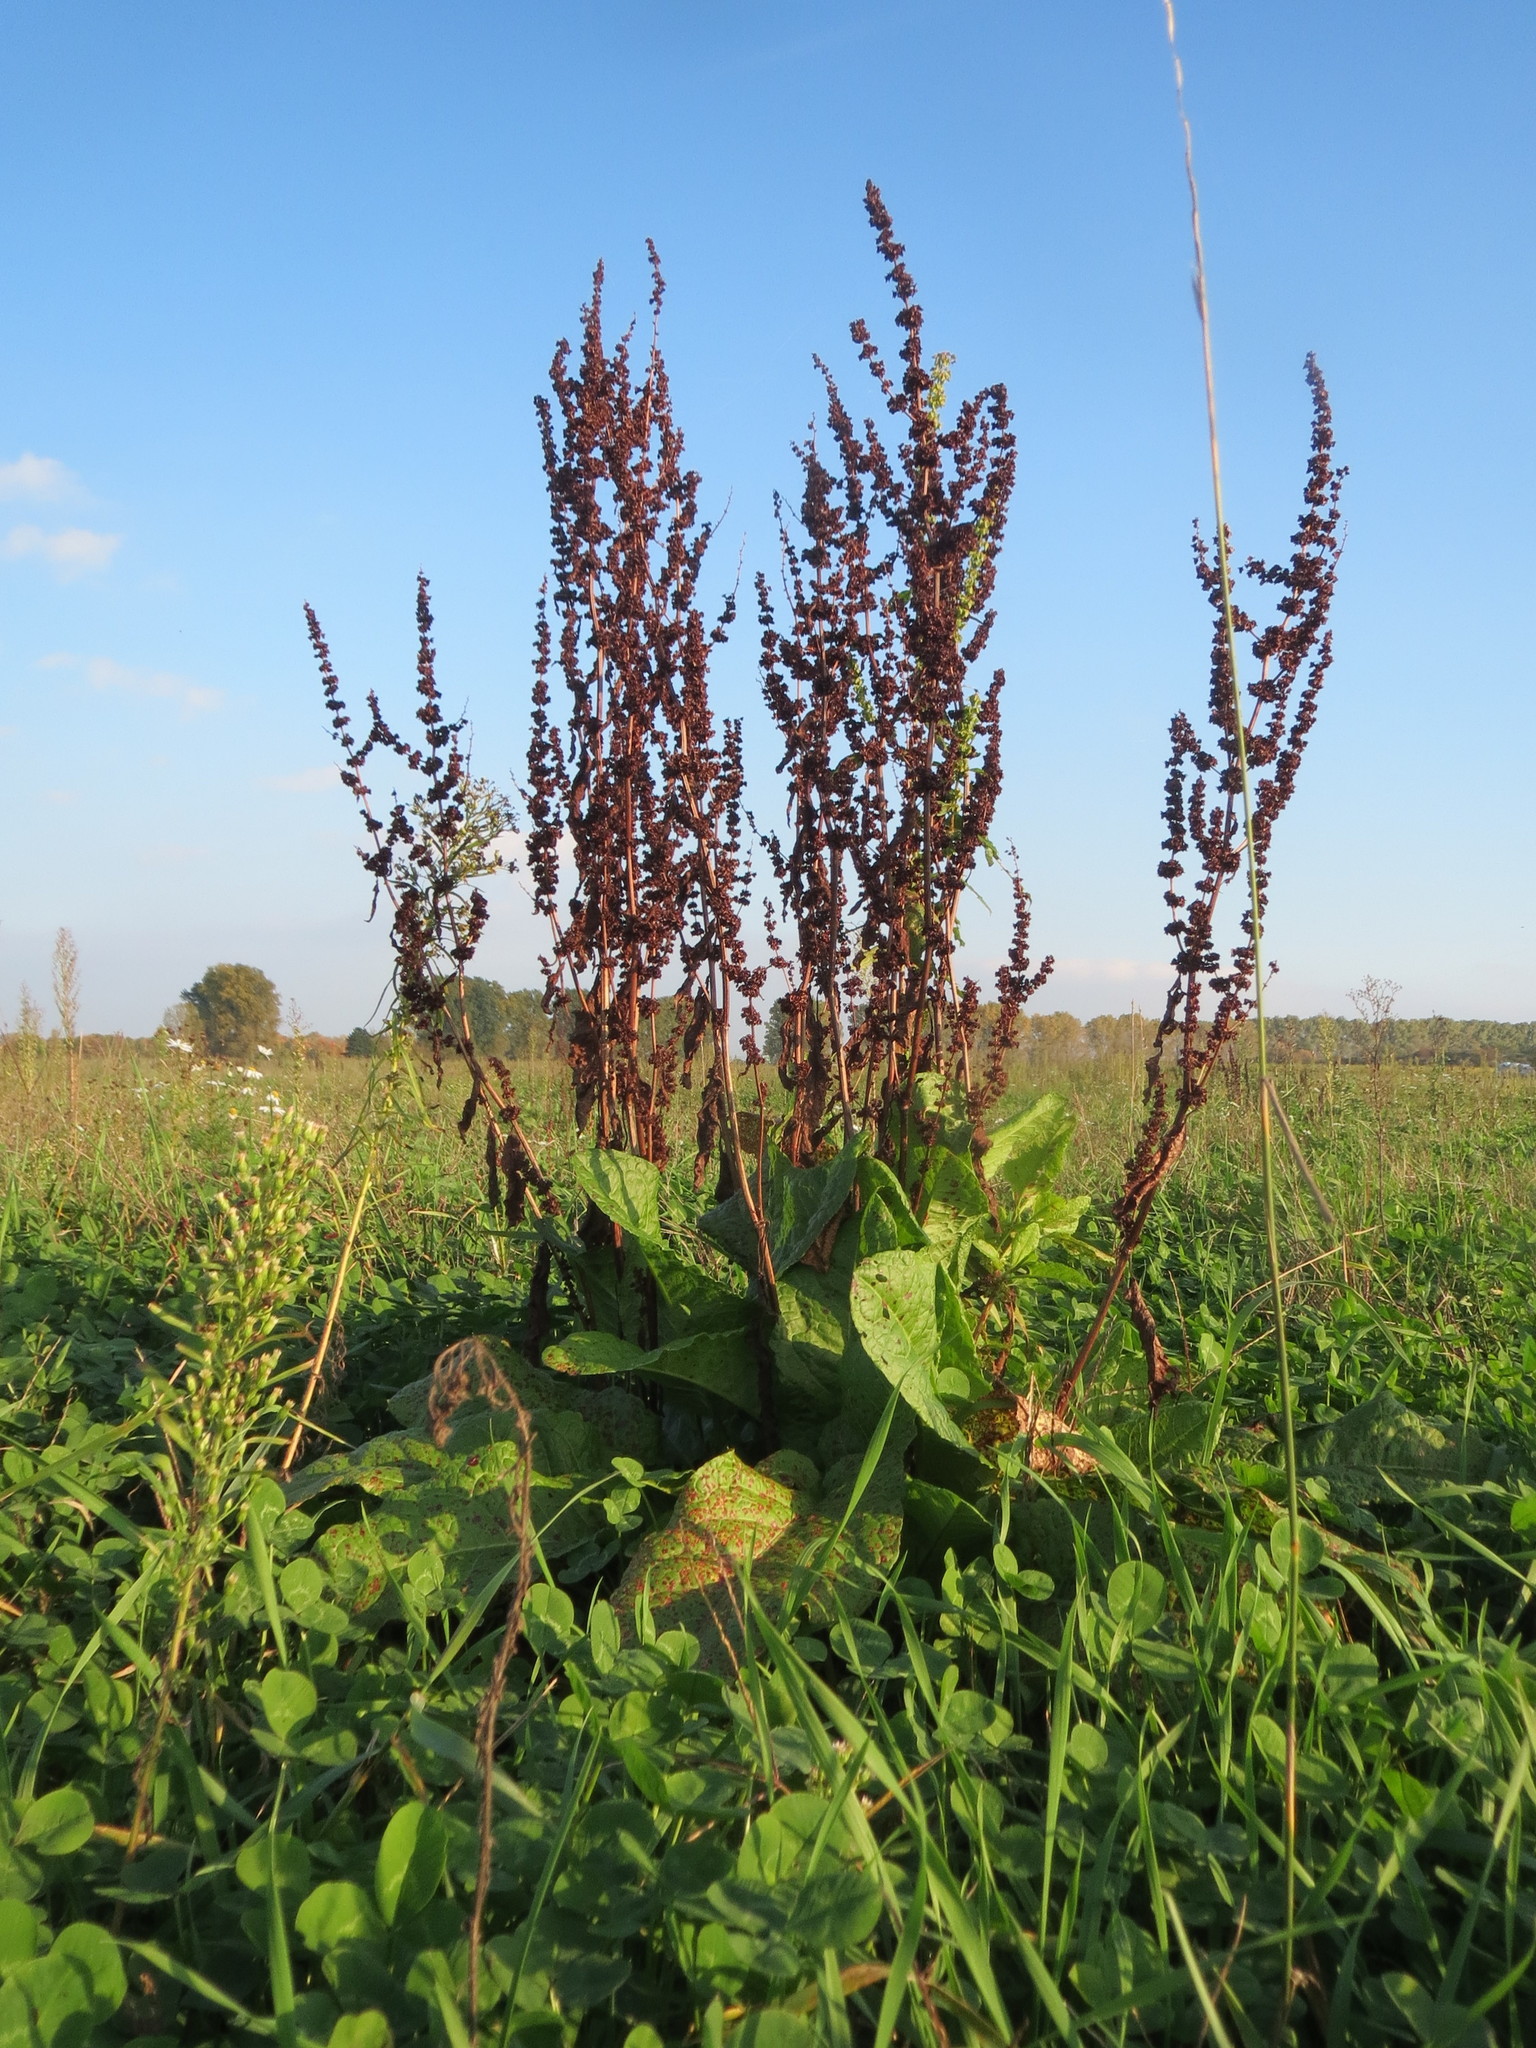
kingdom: Plantae
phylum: Tracheophyta
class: Magnoliopsida
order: Caryophyllales
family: Polygonaceae
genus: Rumex
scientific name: Rumex obtusifolius
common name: Bitter dock
